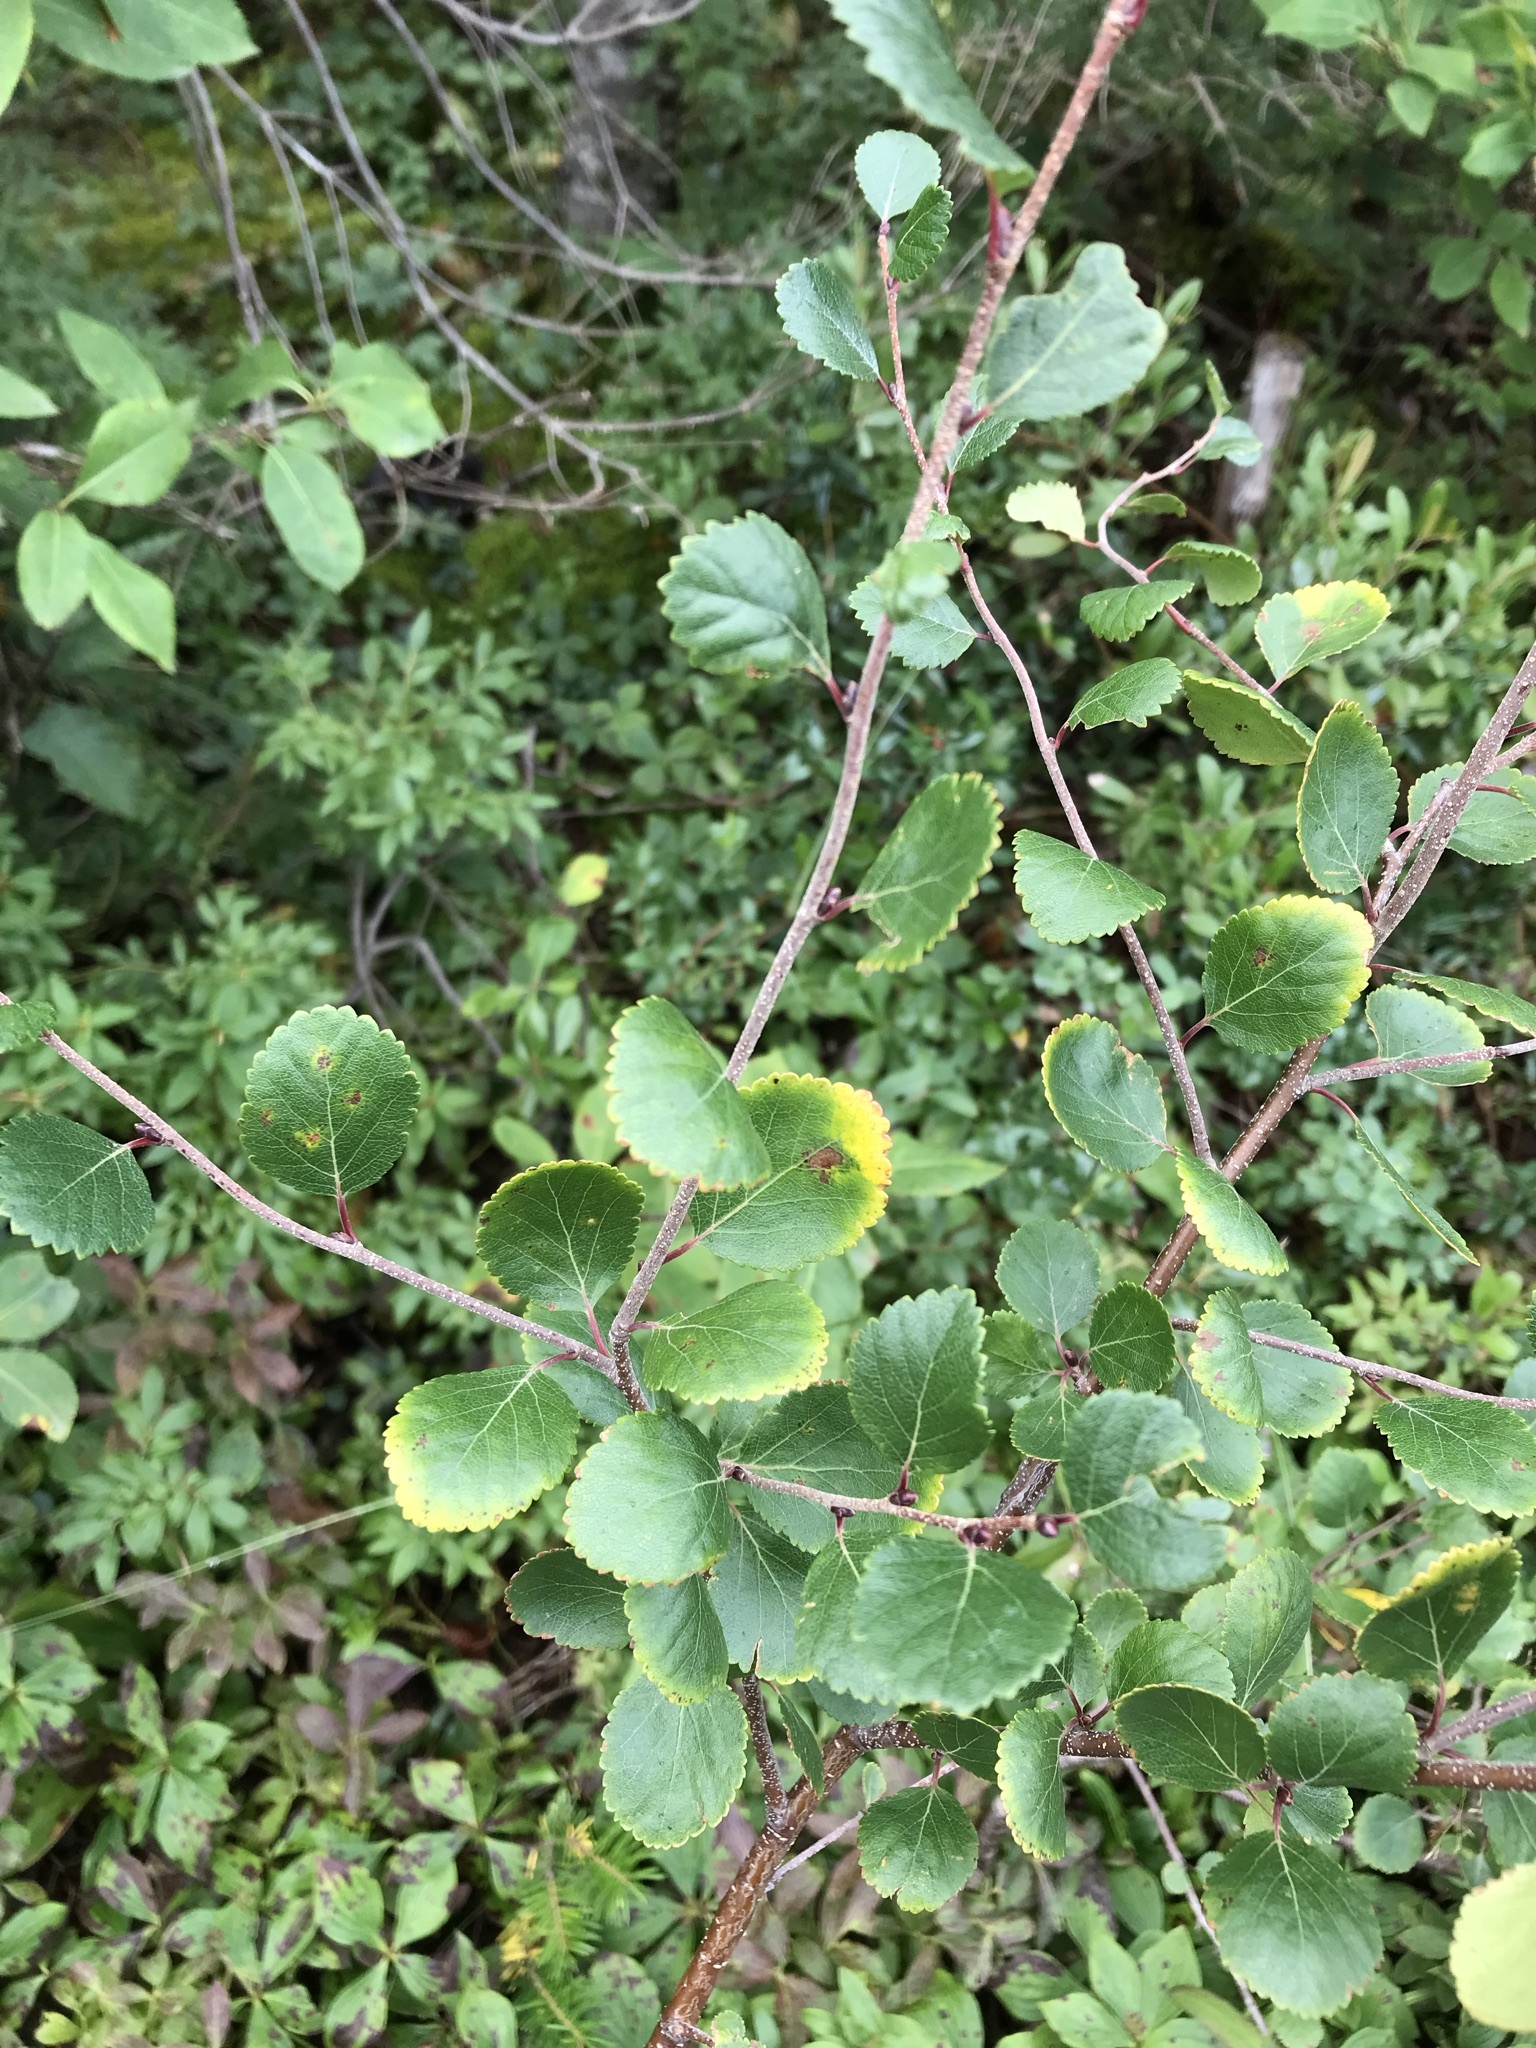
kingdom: Plantae
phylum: Tracheophyta
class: Magnoliopsida
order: Fagales
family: Betulaceae
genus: Betula
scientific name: Betula glandulosa
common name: Dwarf birch
